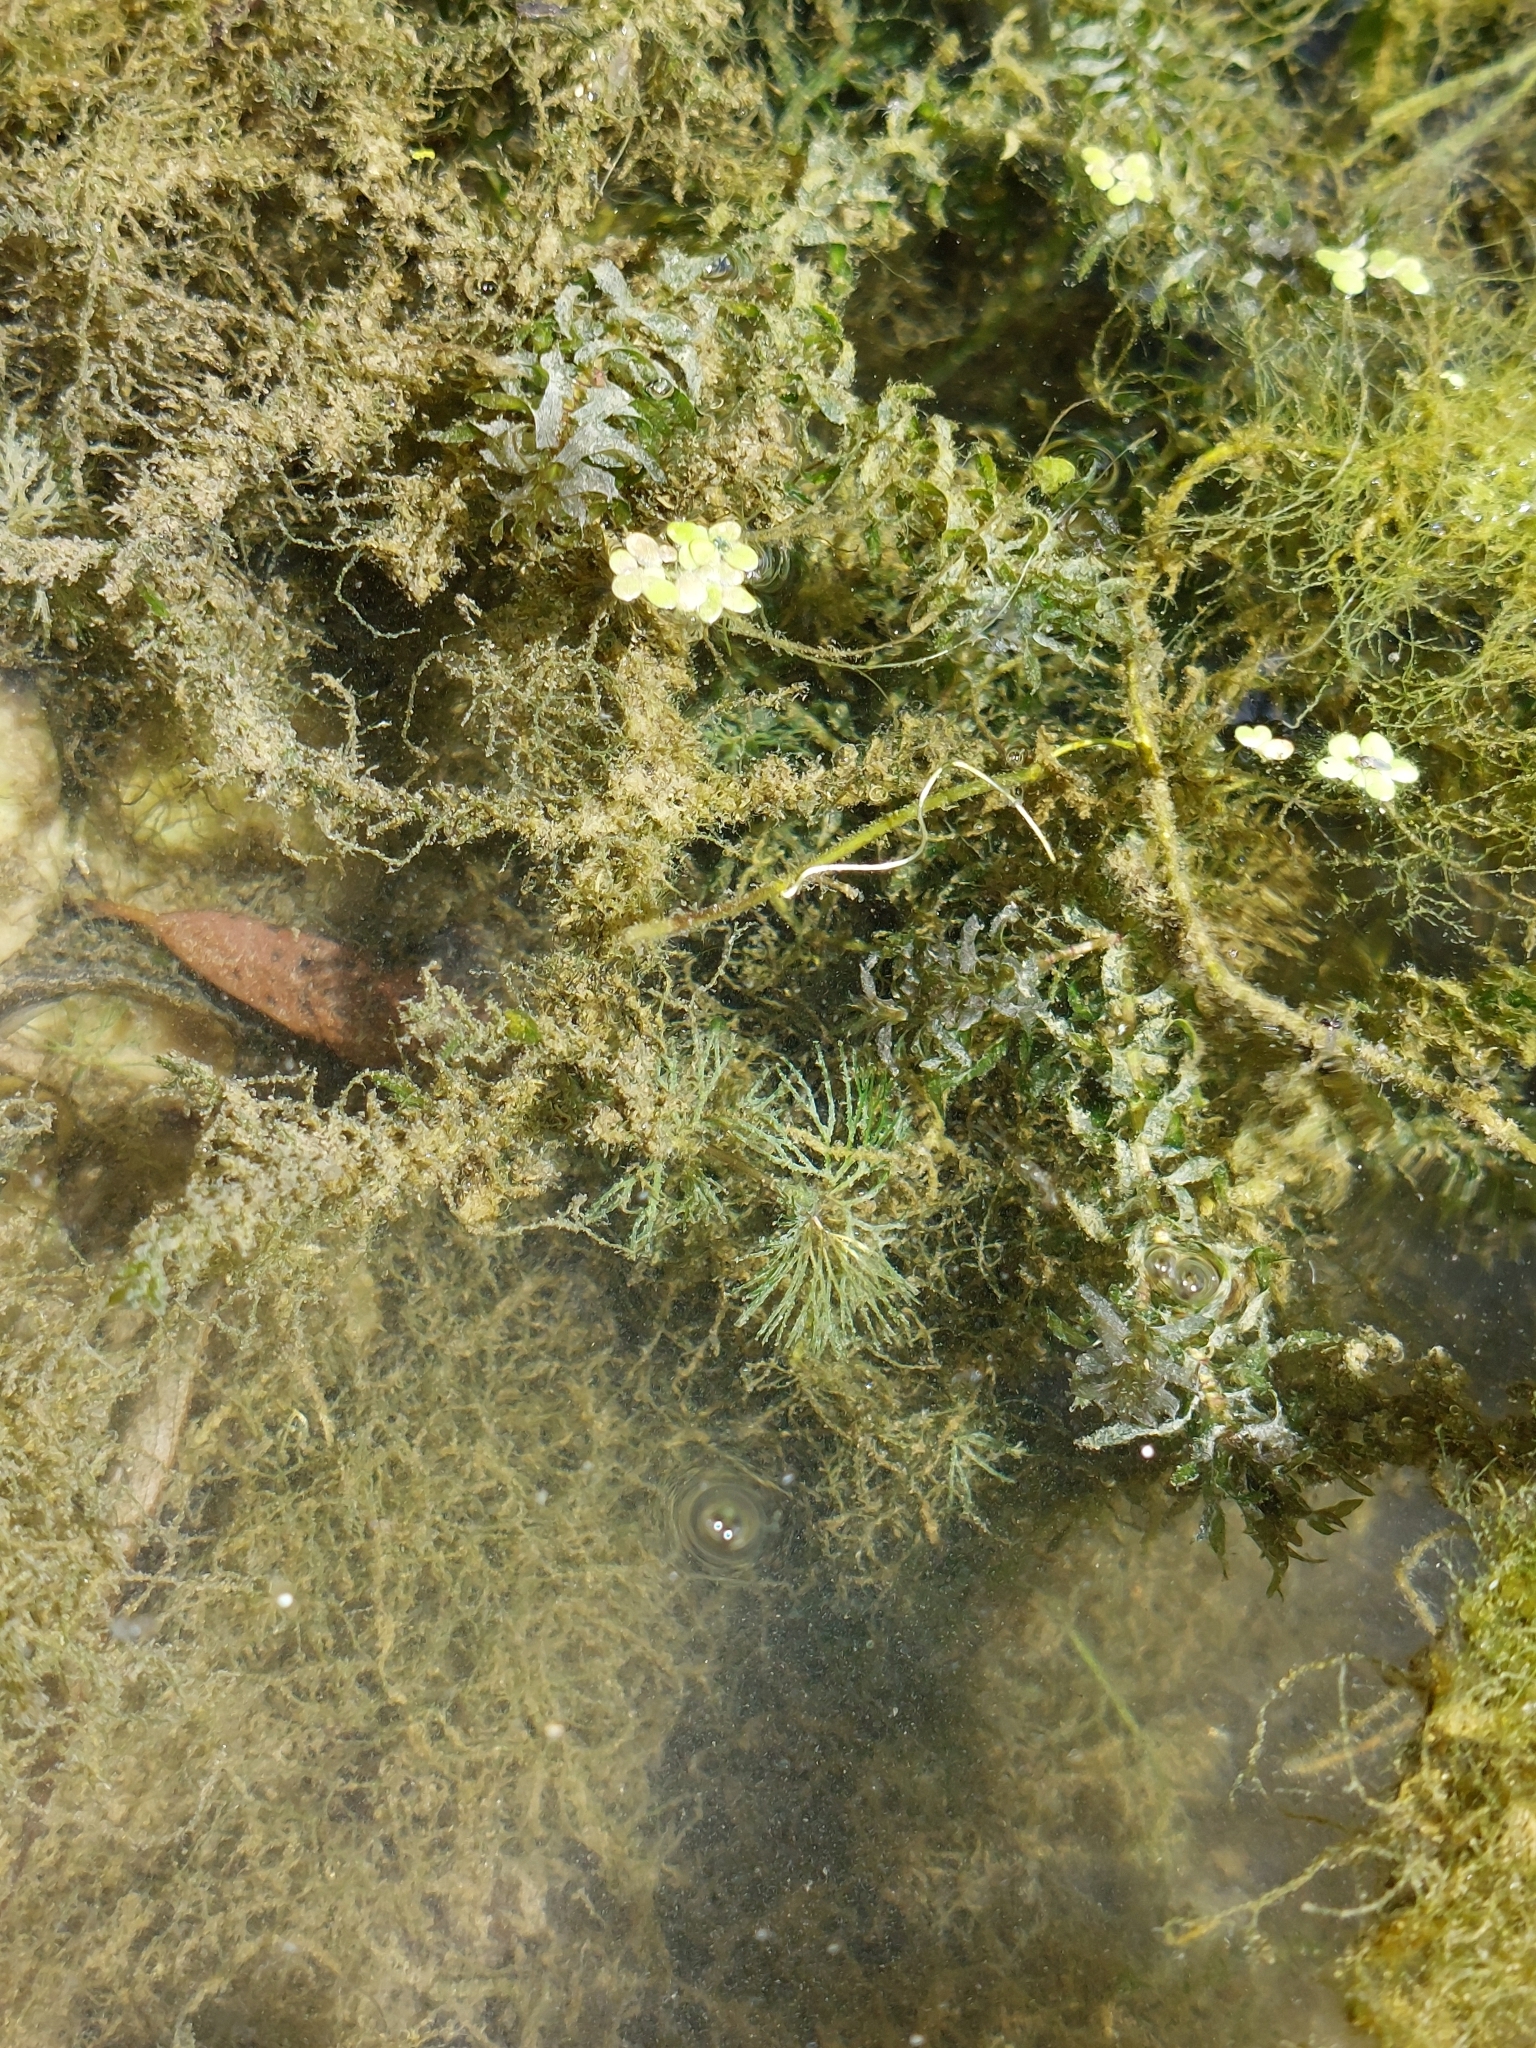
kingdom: Plantae
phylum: Tracheophyta
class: Liliopsida
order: Alismatales
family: Hydrocharitaceae
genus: Elodea
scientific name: Elodea nuttallii
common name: Nuttall's waterweed
